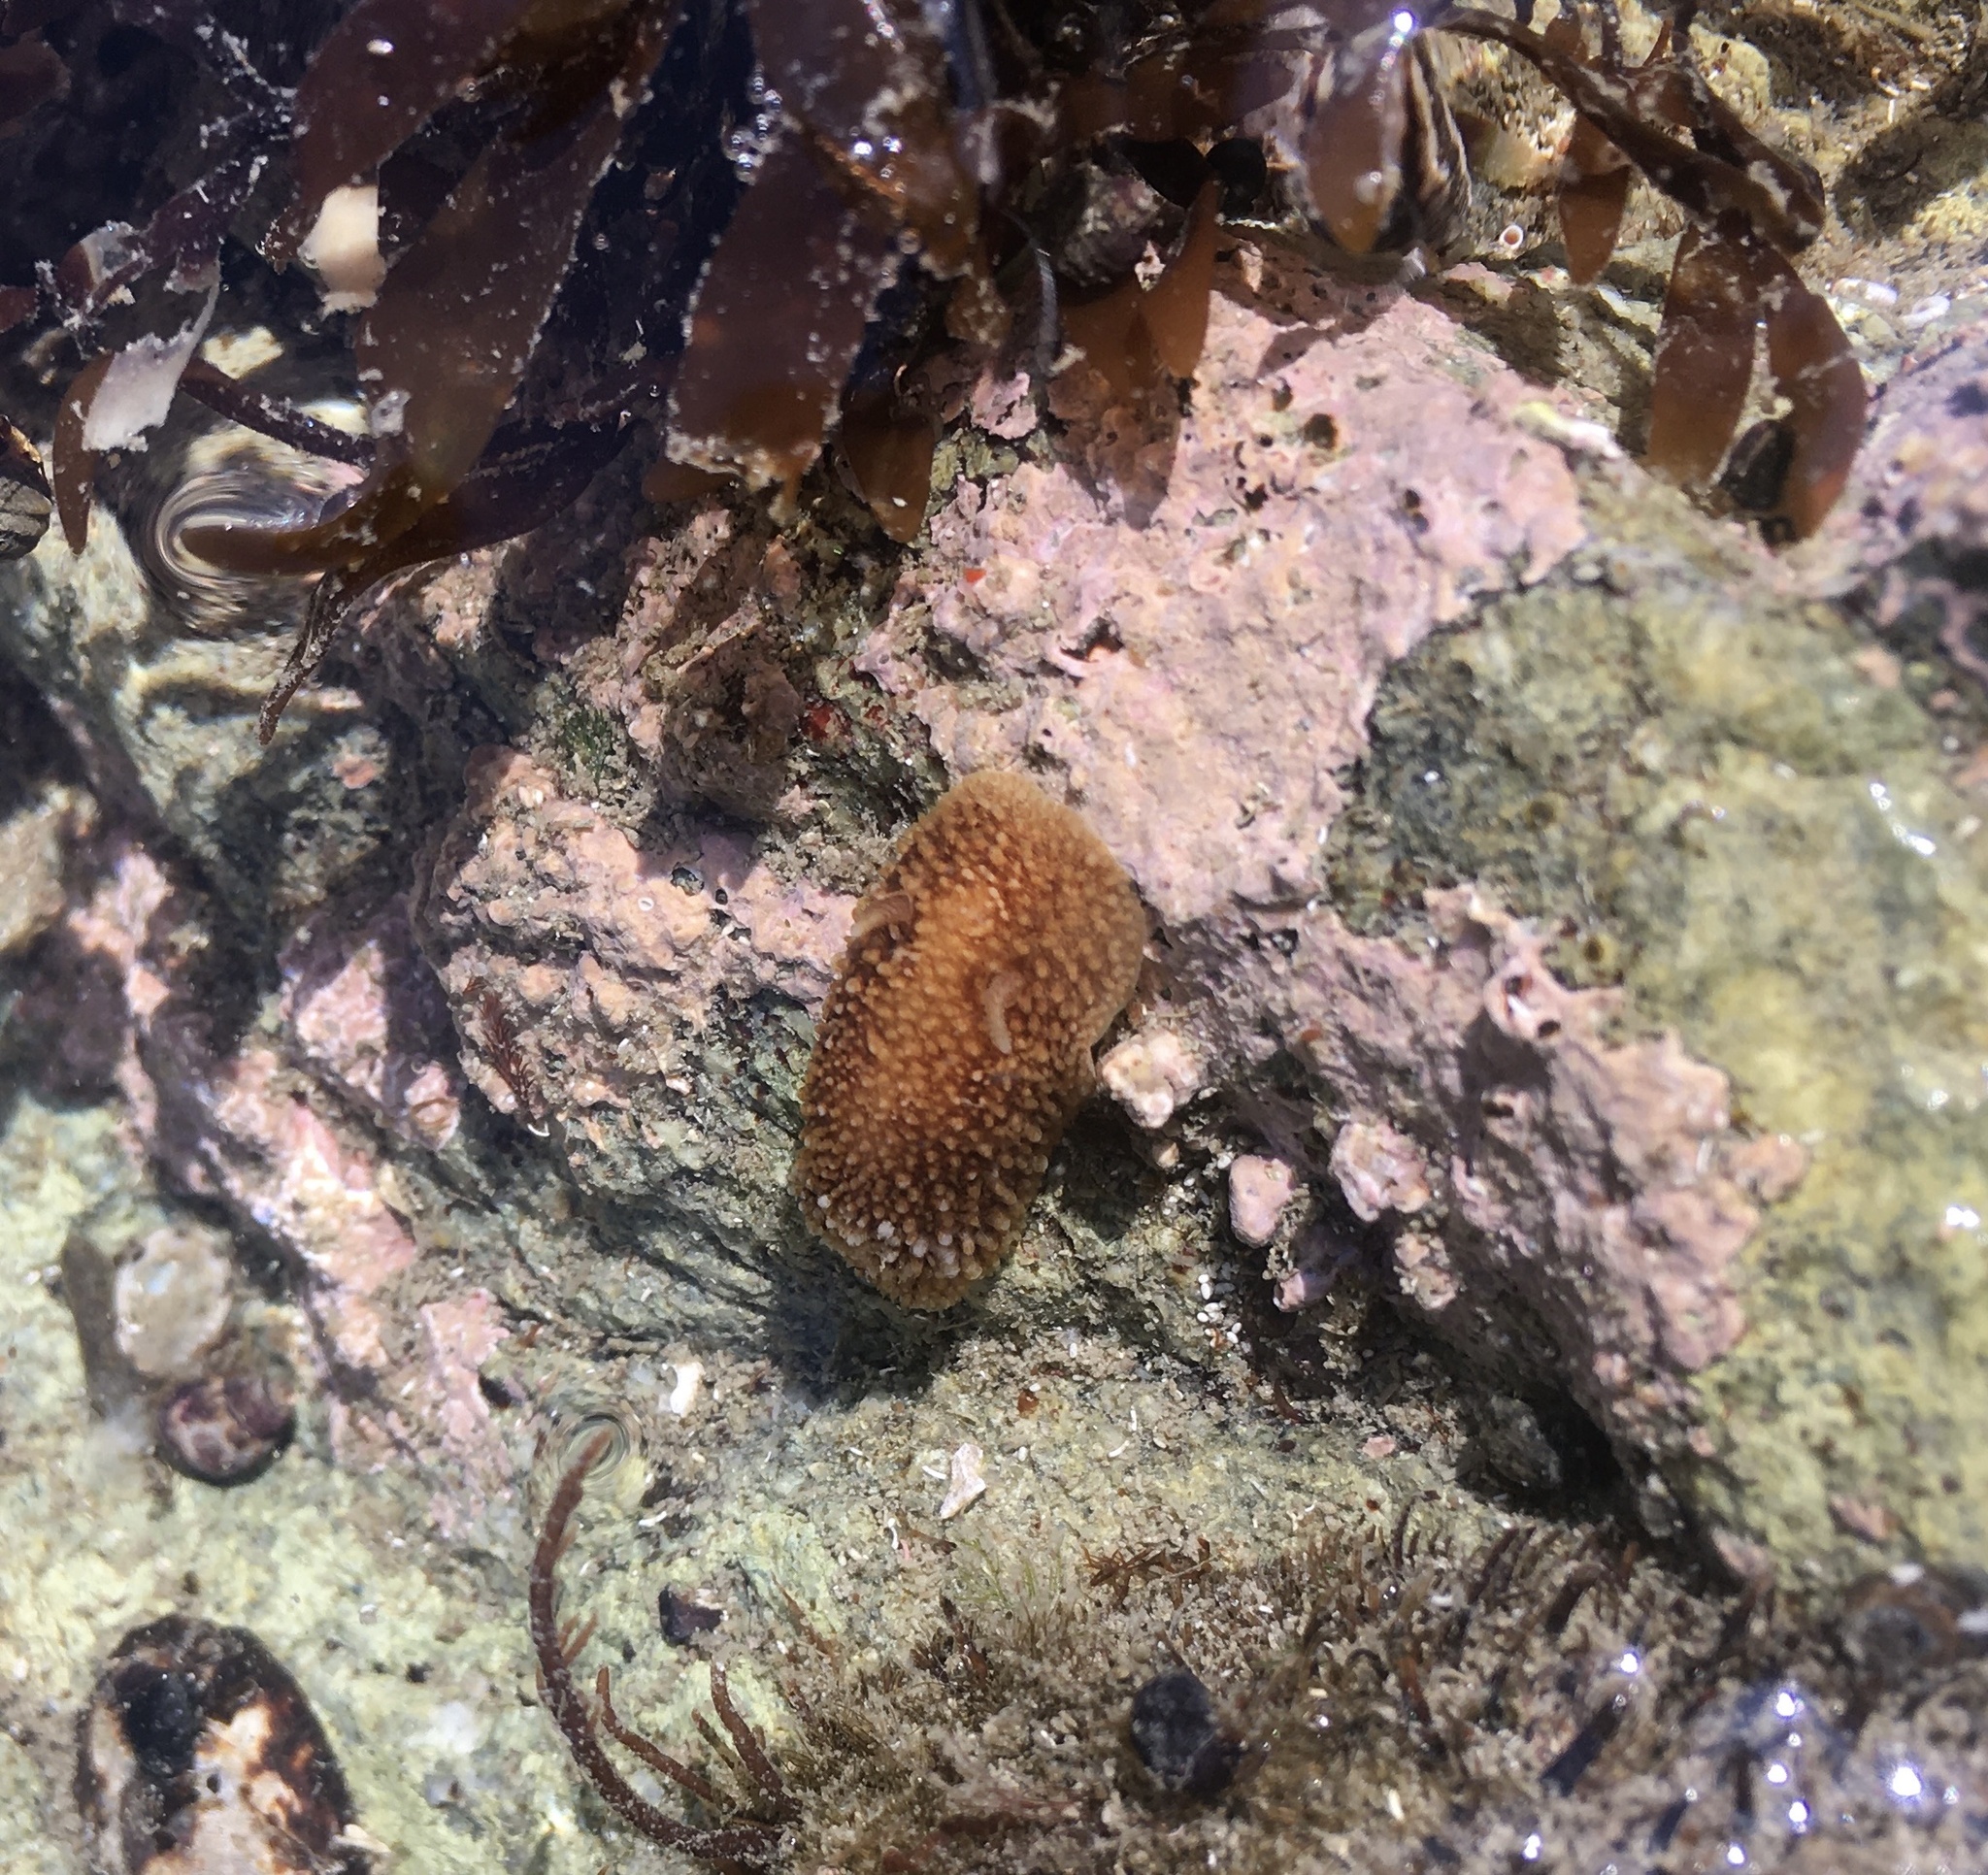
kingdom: Animalia
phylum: Mollusca
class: Gastropoda
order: Nudibranchia
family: Onchidorididae
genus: Onchidoris
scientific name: Onchidoris bilamellata
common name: Barnacle-eating onchidoris
